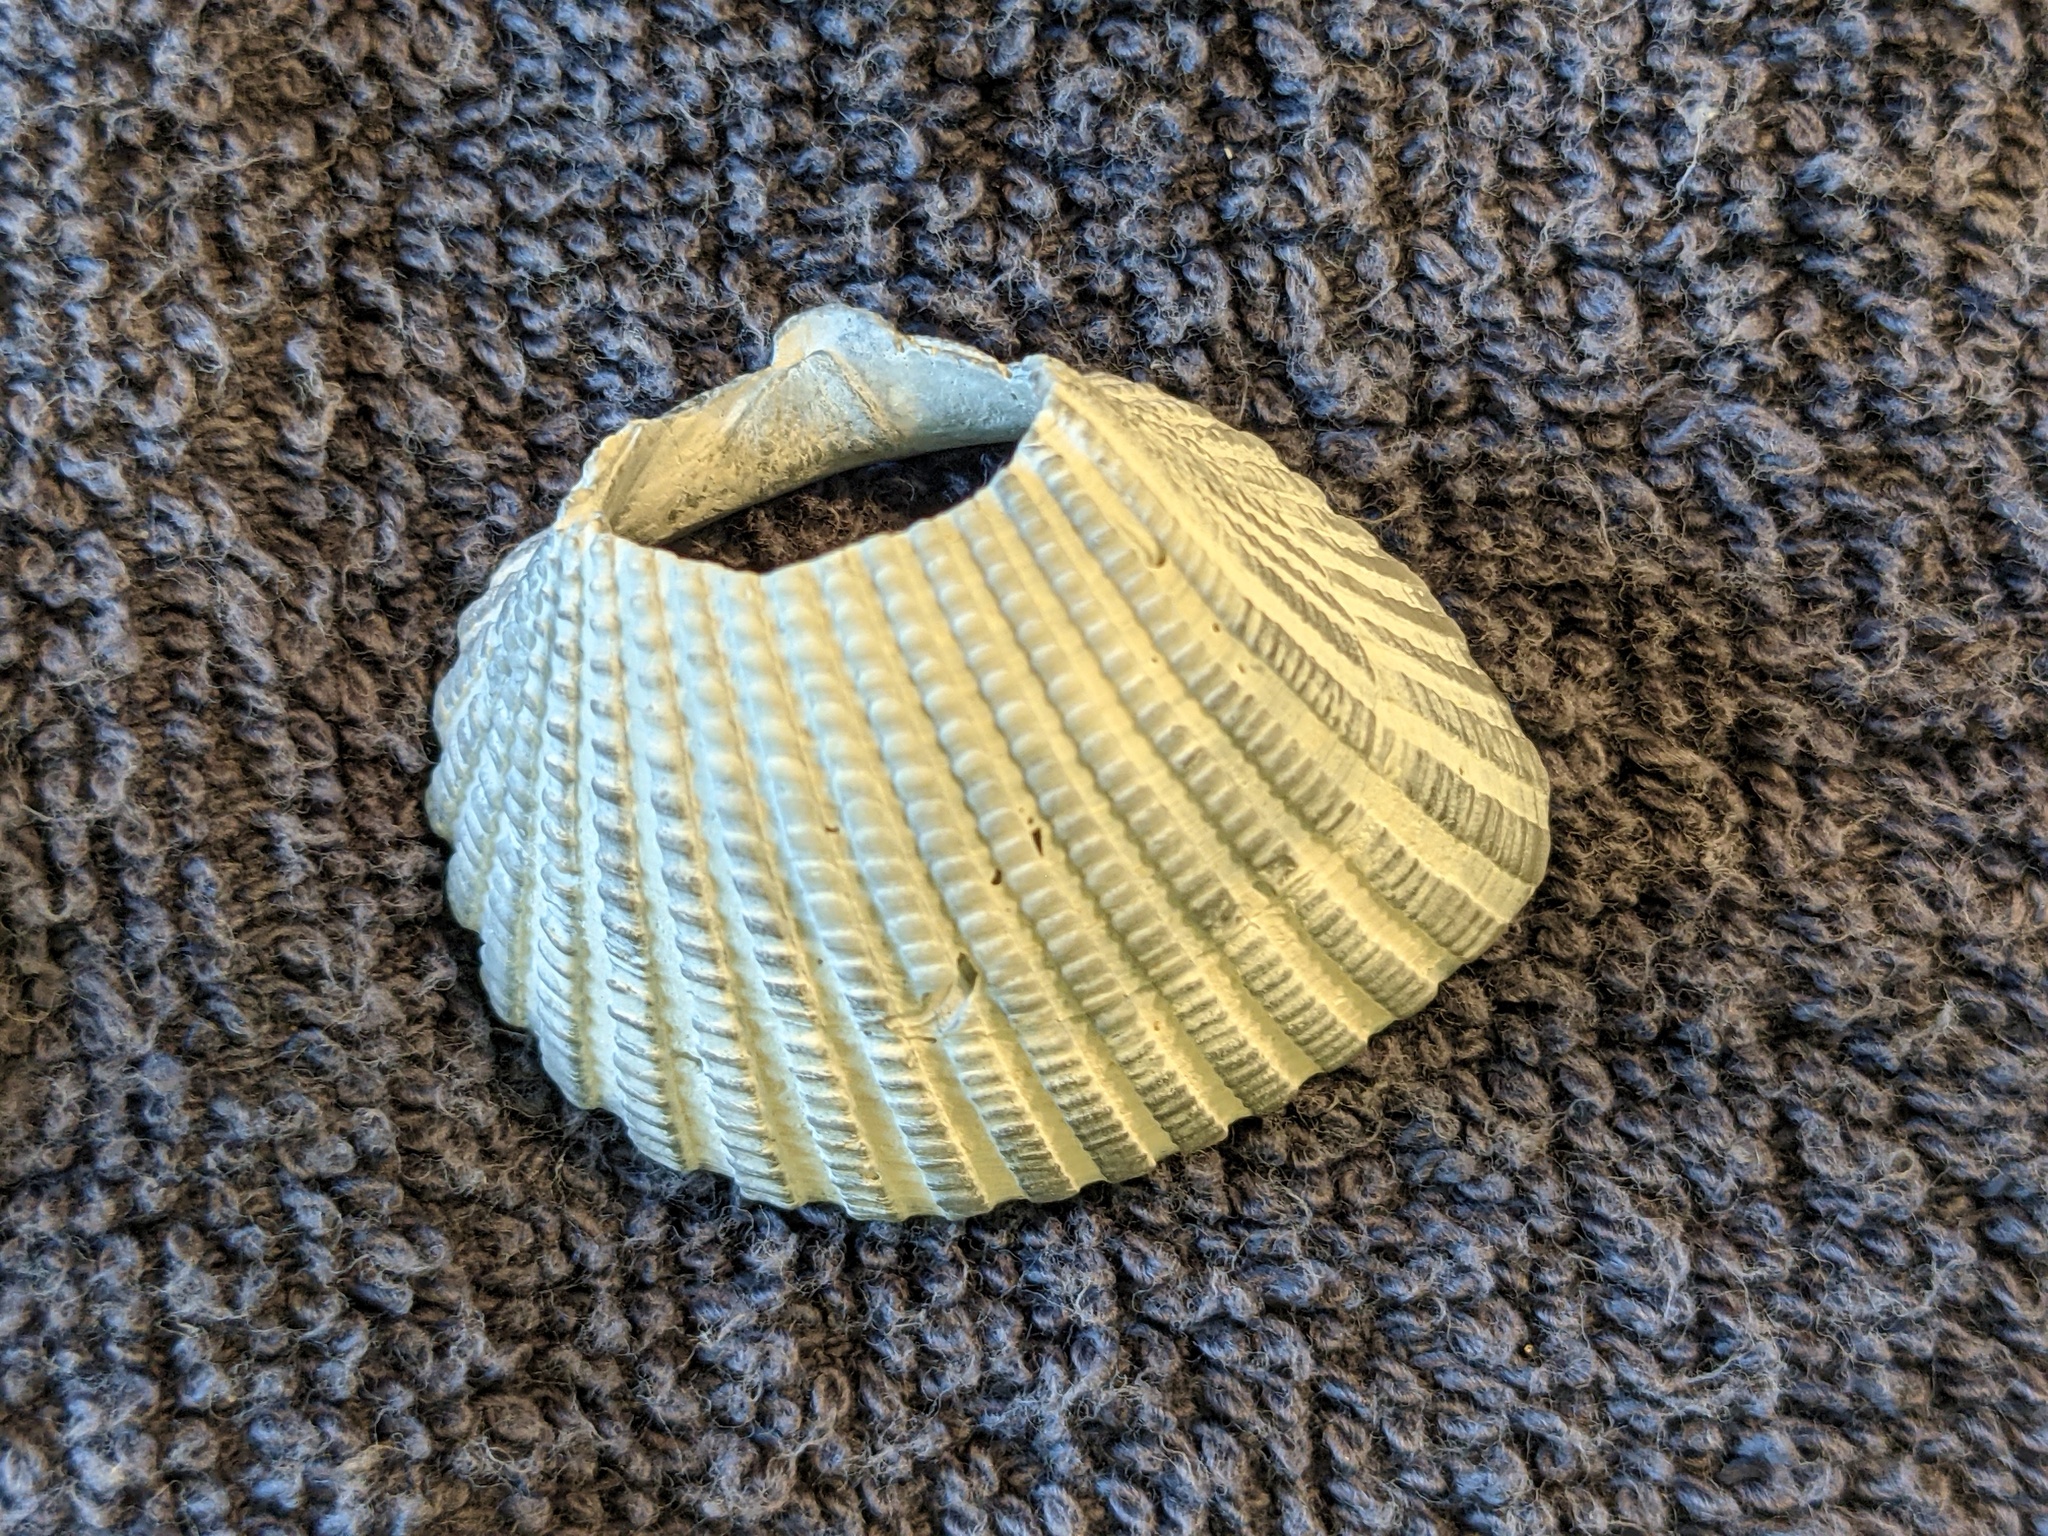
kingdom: Animalia
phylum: Mollusca
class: Bivalvia
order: Arcida
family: Arcidae
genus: Anadara
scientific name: Anadara brasiliana
